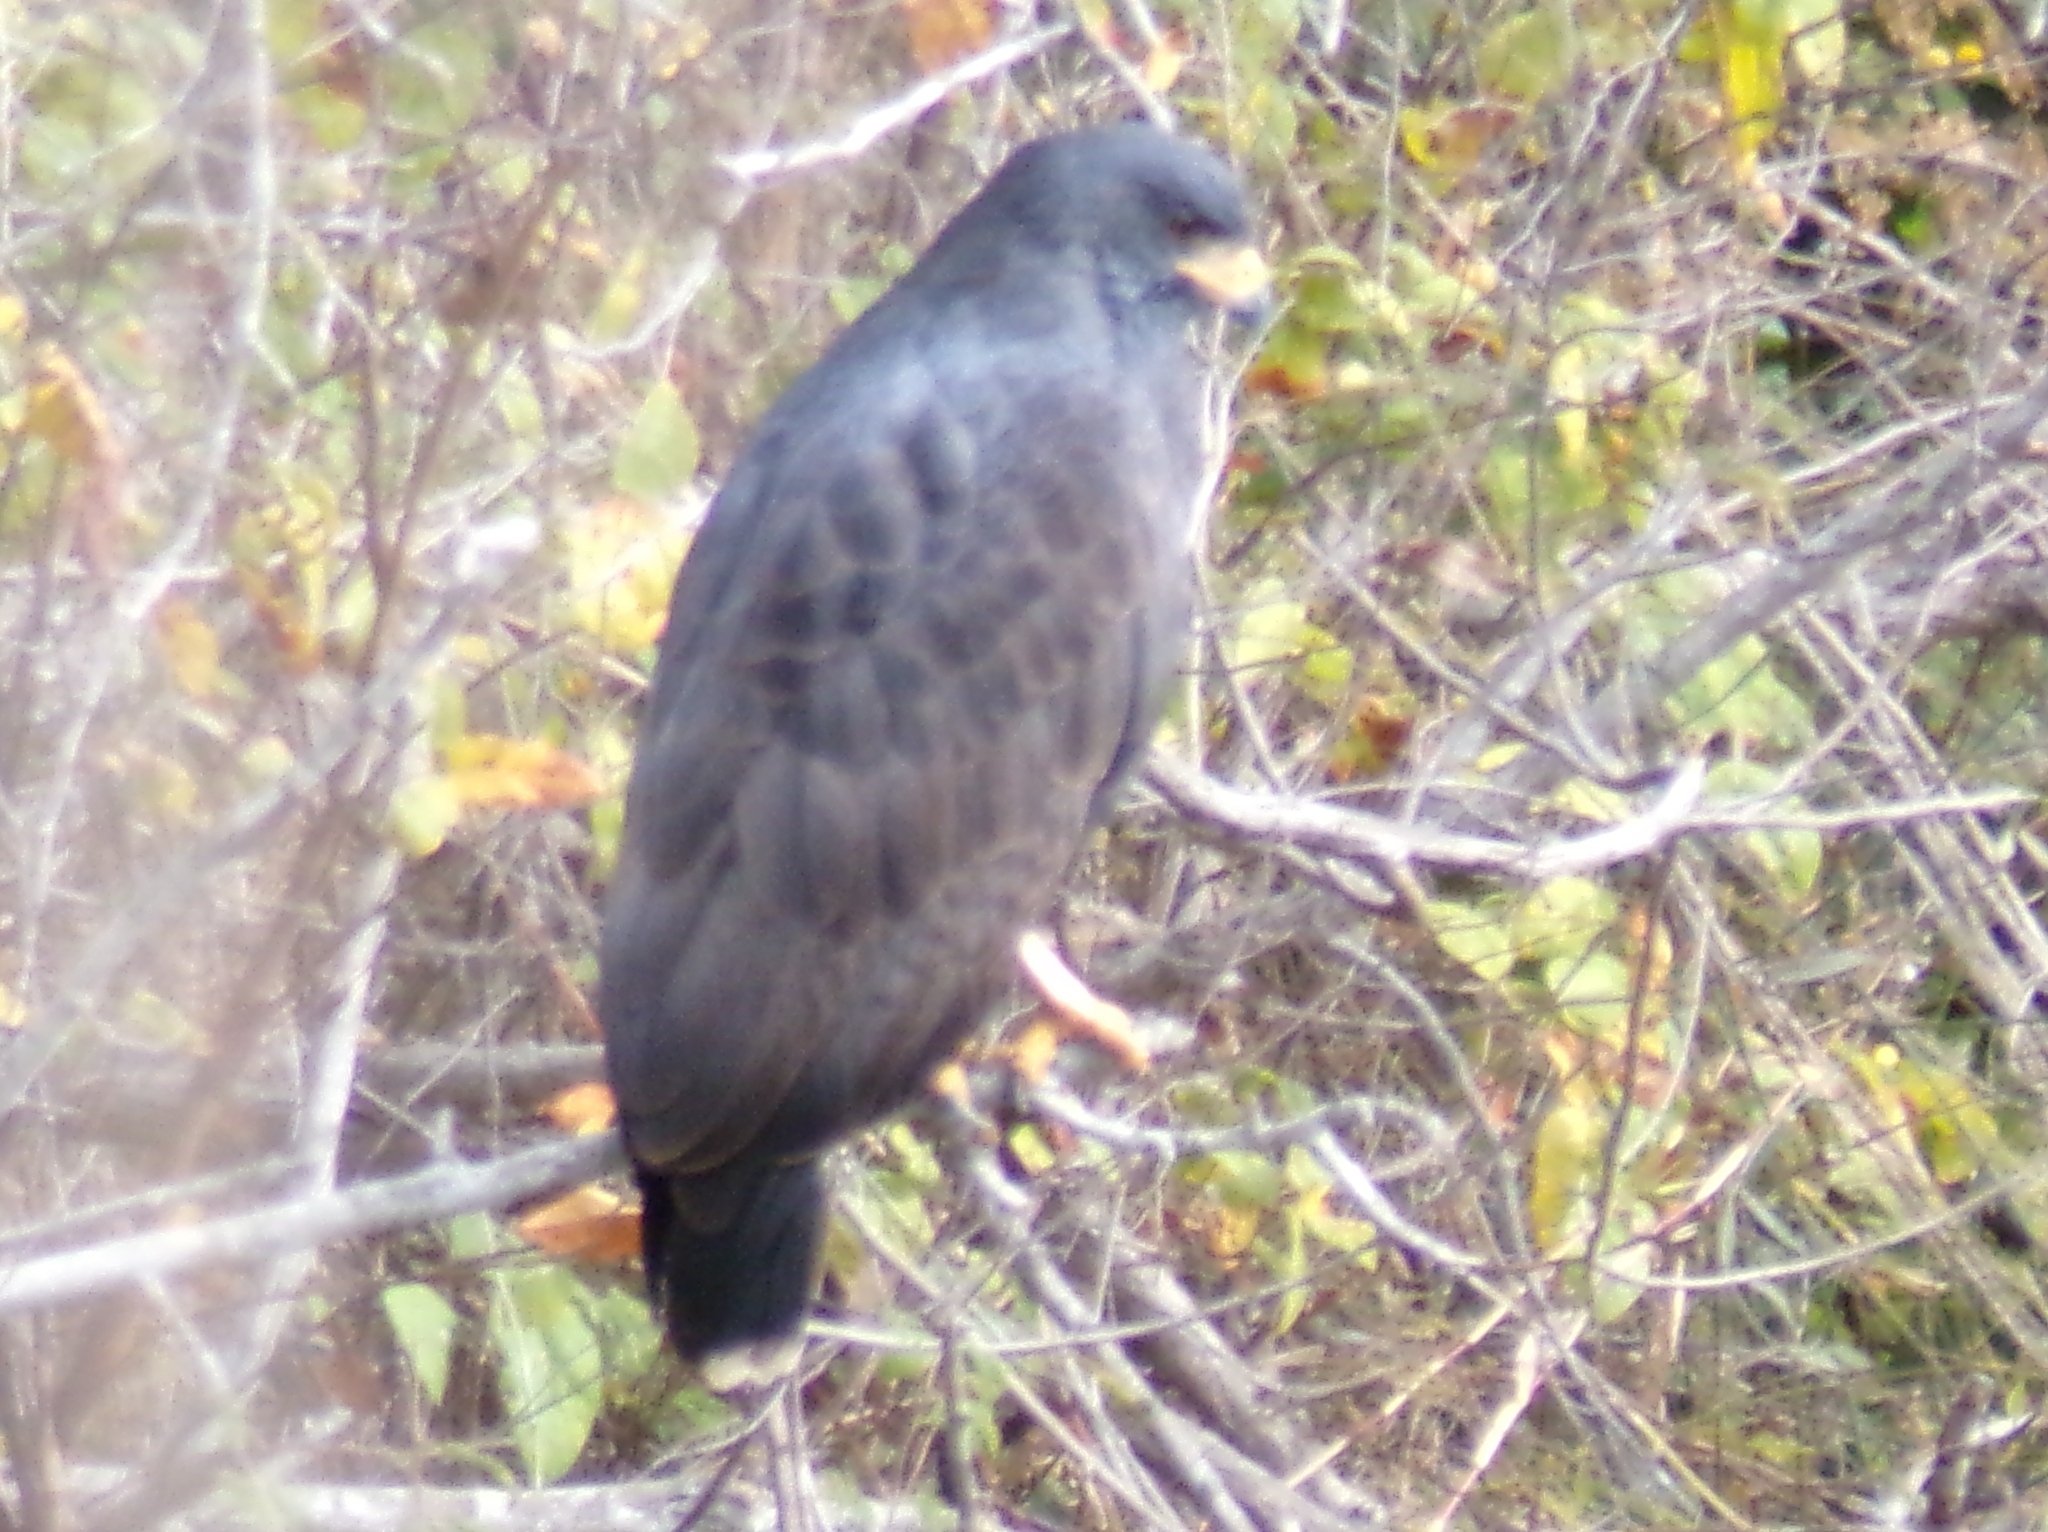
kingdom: Animalia
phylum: Chordata
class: Aves
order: Accipitriformes
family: Accipitridae
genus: Buteogallus
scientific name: Buteogallus anthracinus
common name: Common black hawk
